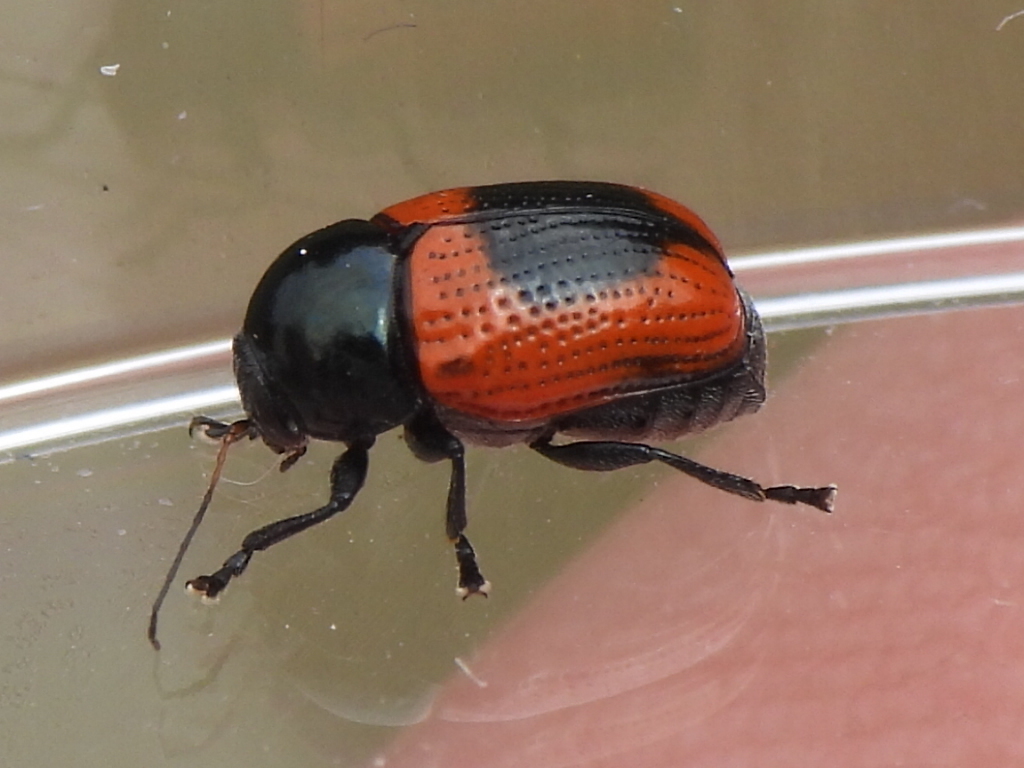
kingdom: Animalia
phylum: Arthropoda
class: Insecta
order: Coleoptera
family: Chrysomelidae
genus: Cryptocephalus
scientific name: Cryptocephalus notatus
